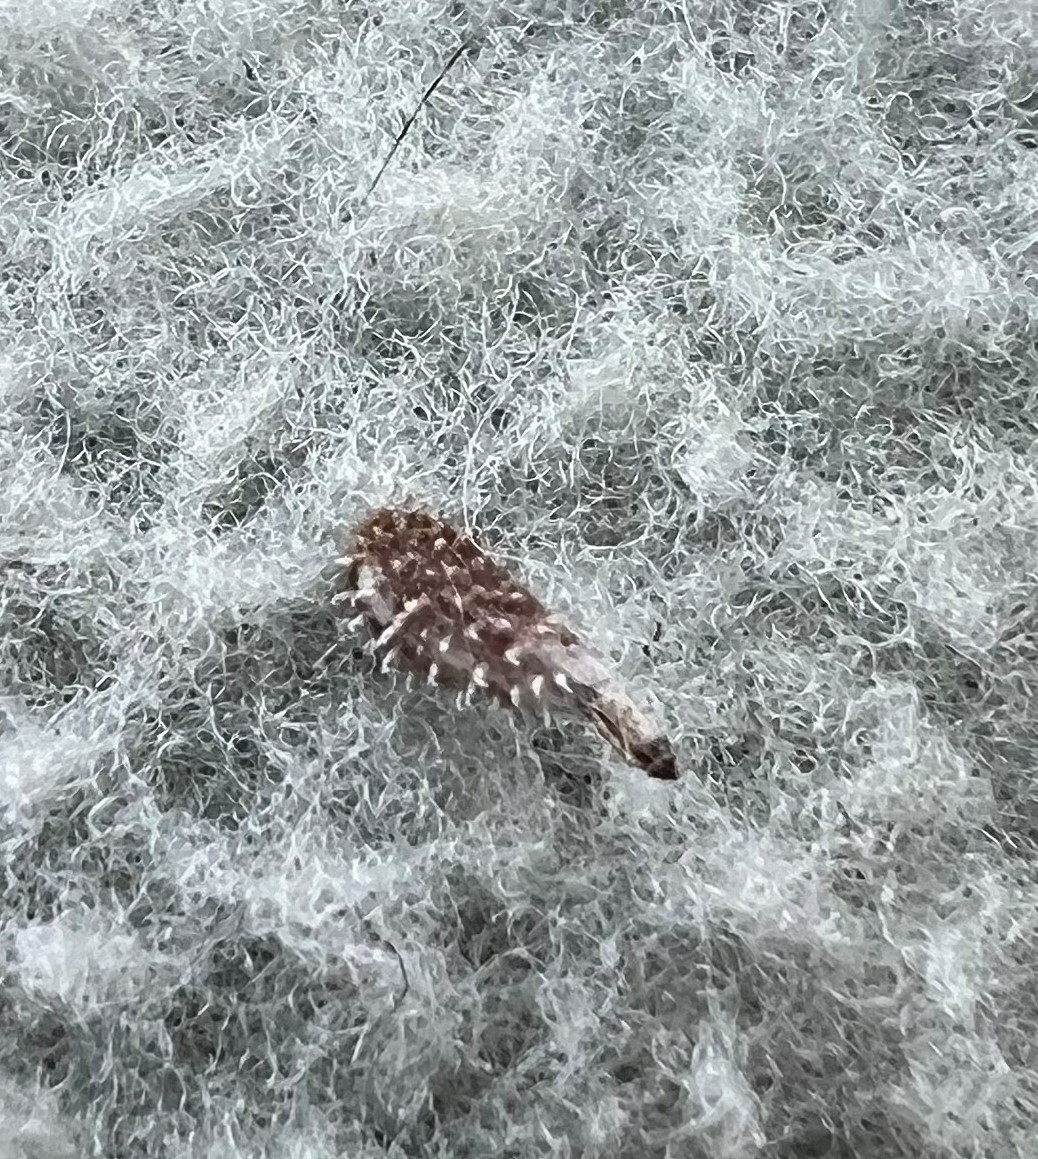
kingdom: Plantae
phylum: Tracheophyta
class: Magnoliopsida
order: Apiales
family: Apiaceae
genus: Sanicula
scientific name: Sanicula crassicaulis
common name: Western snakeroot
